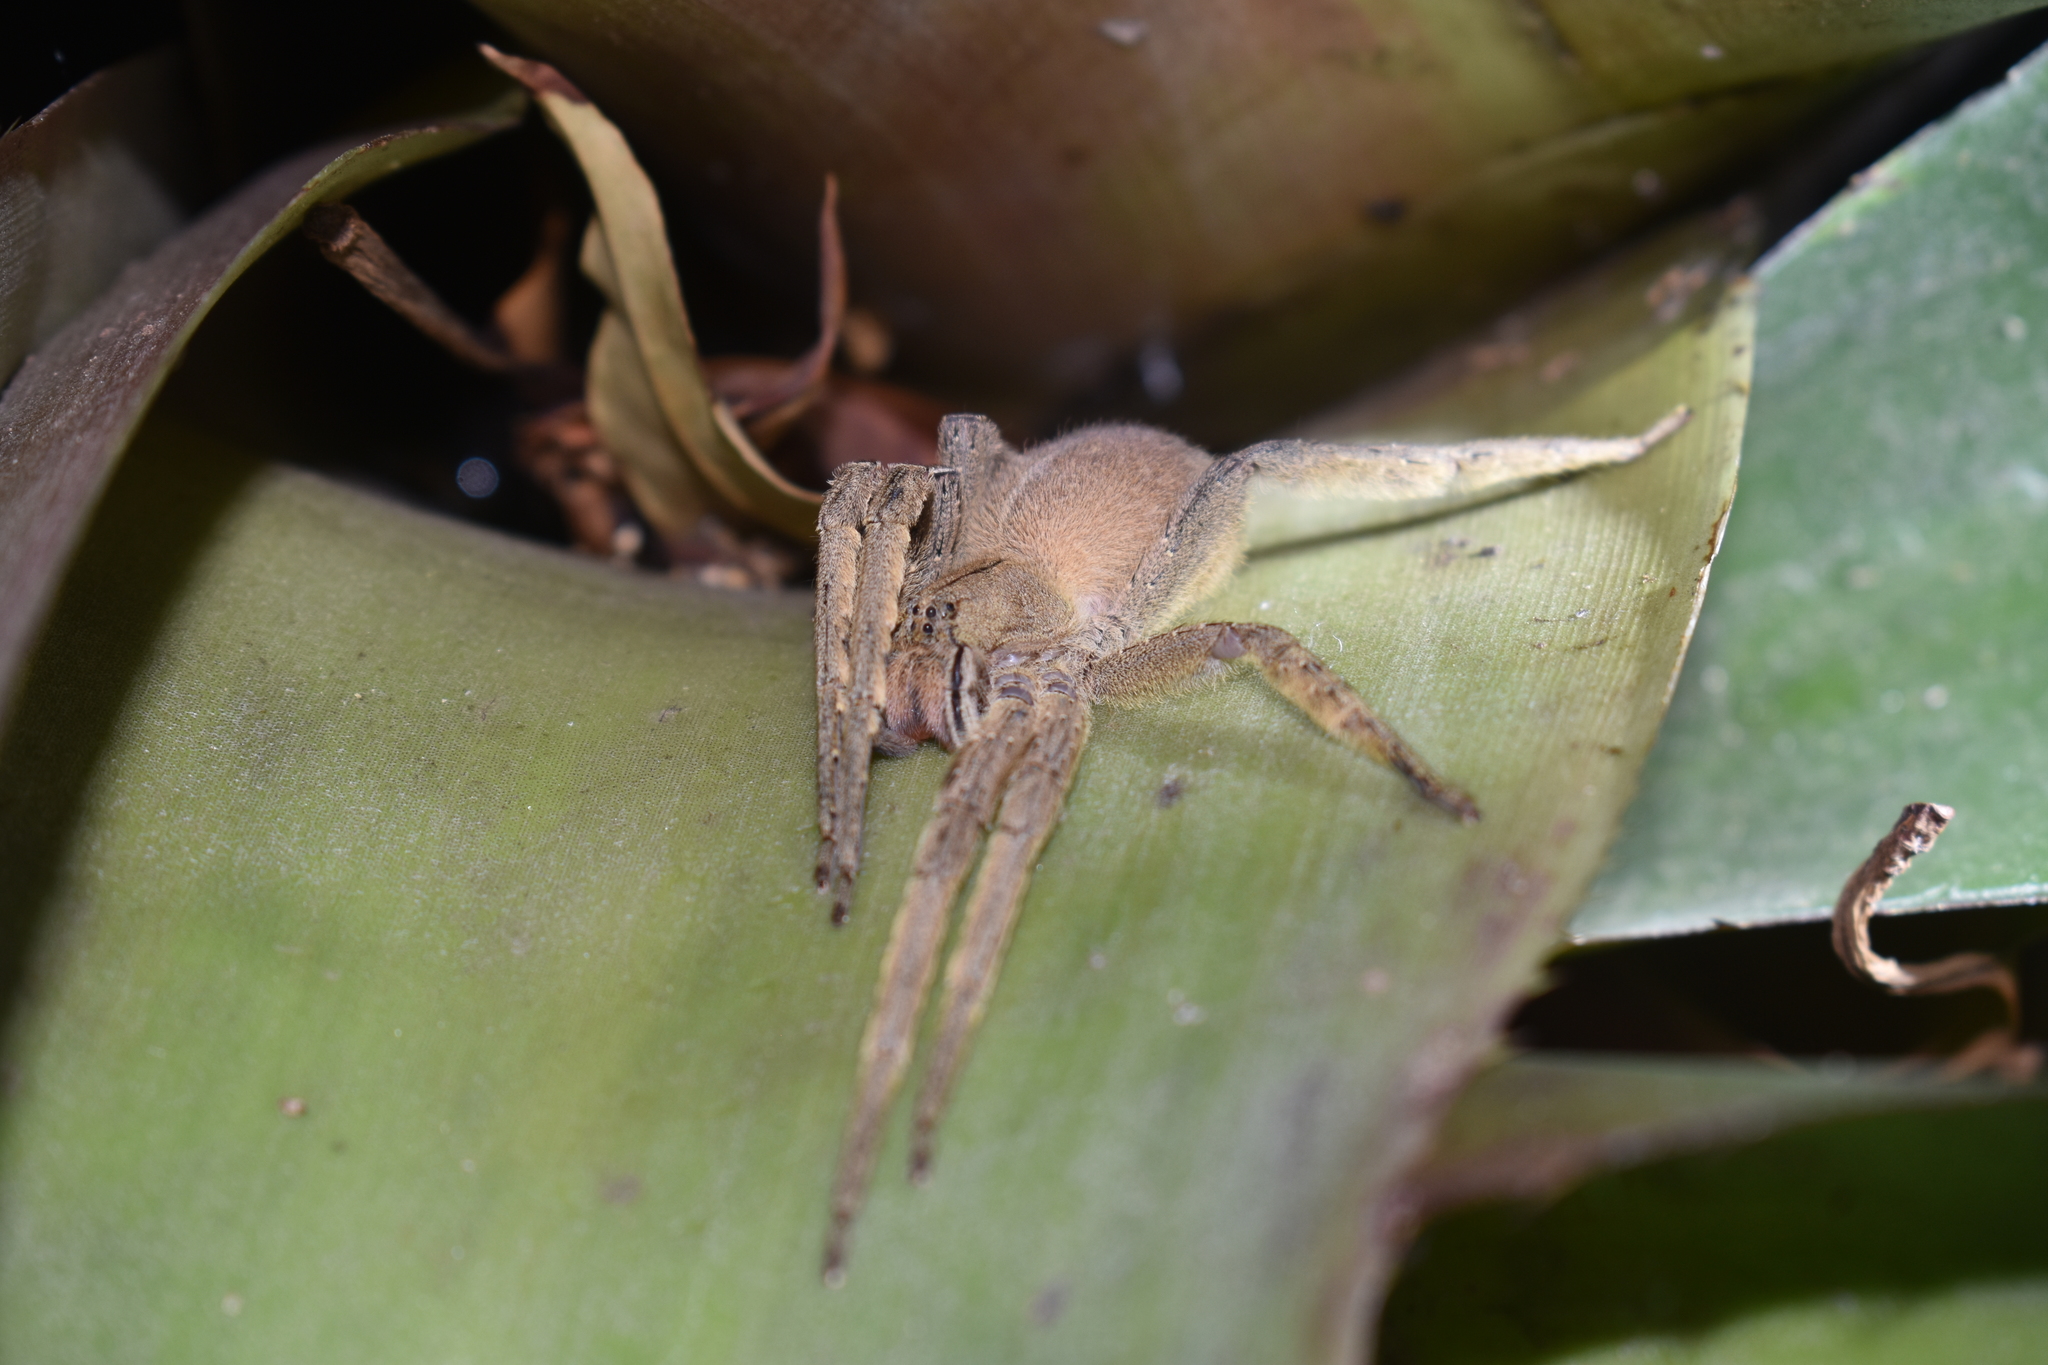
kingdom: Animalia
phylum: Arthropoda
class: Arachnida
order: Araneae
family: Ctenidae
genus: Phoneutria
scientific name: Phoneutria depilata
